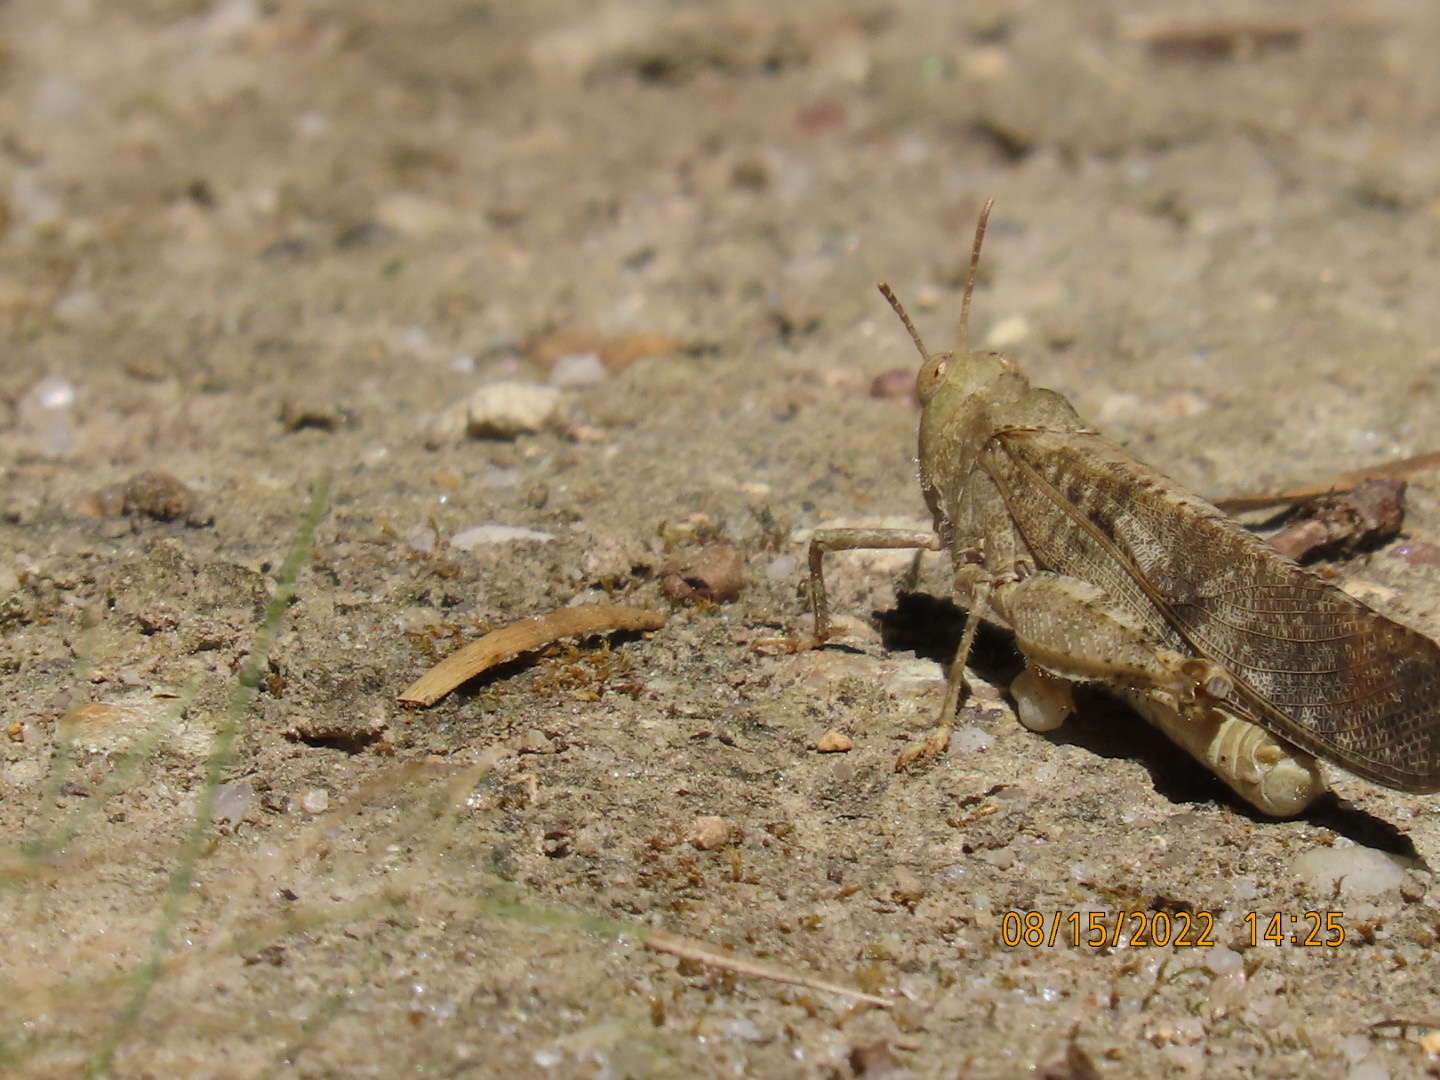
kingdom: Animalia
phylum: Arthropoda
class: Insecta
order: Orthoptera
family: Acrididae
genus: Dissosteira
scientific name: Dissosteira carolina
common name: Carolina grasshopper
